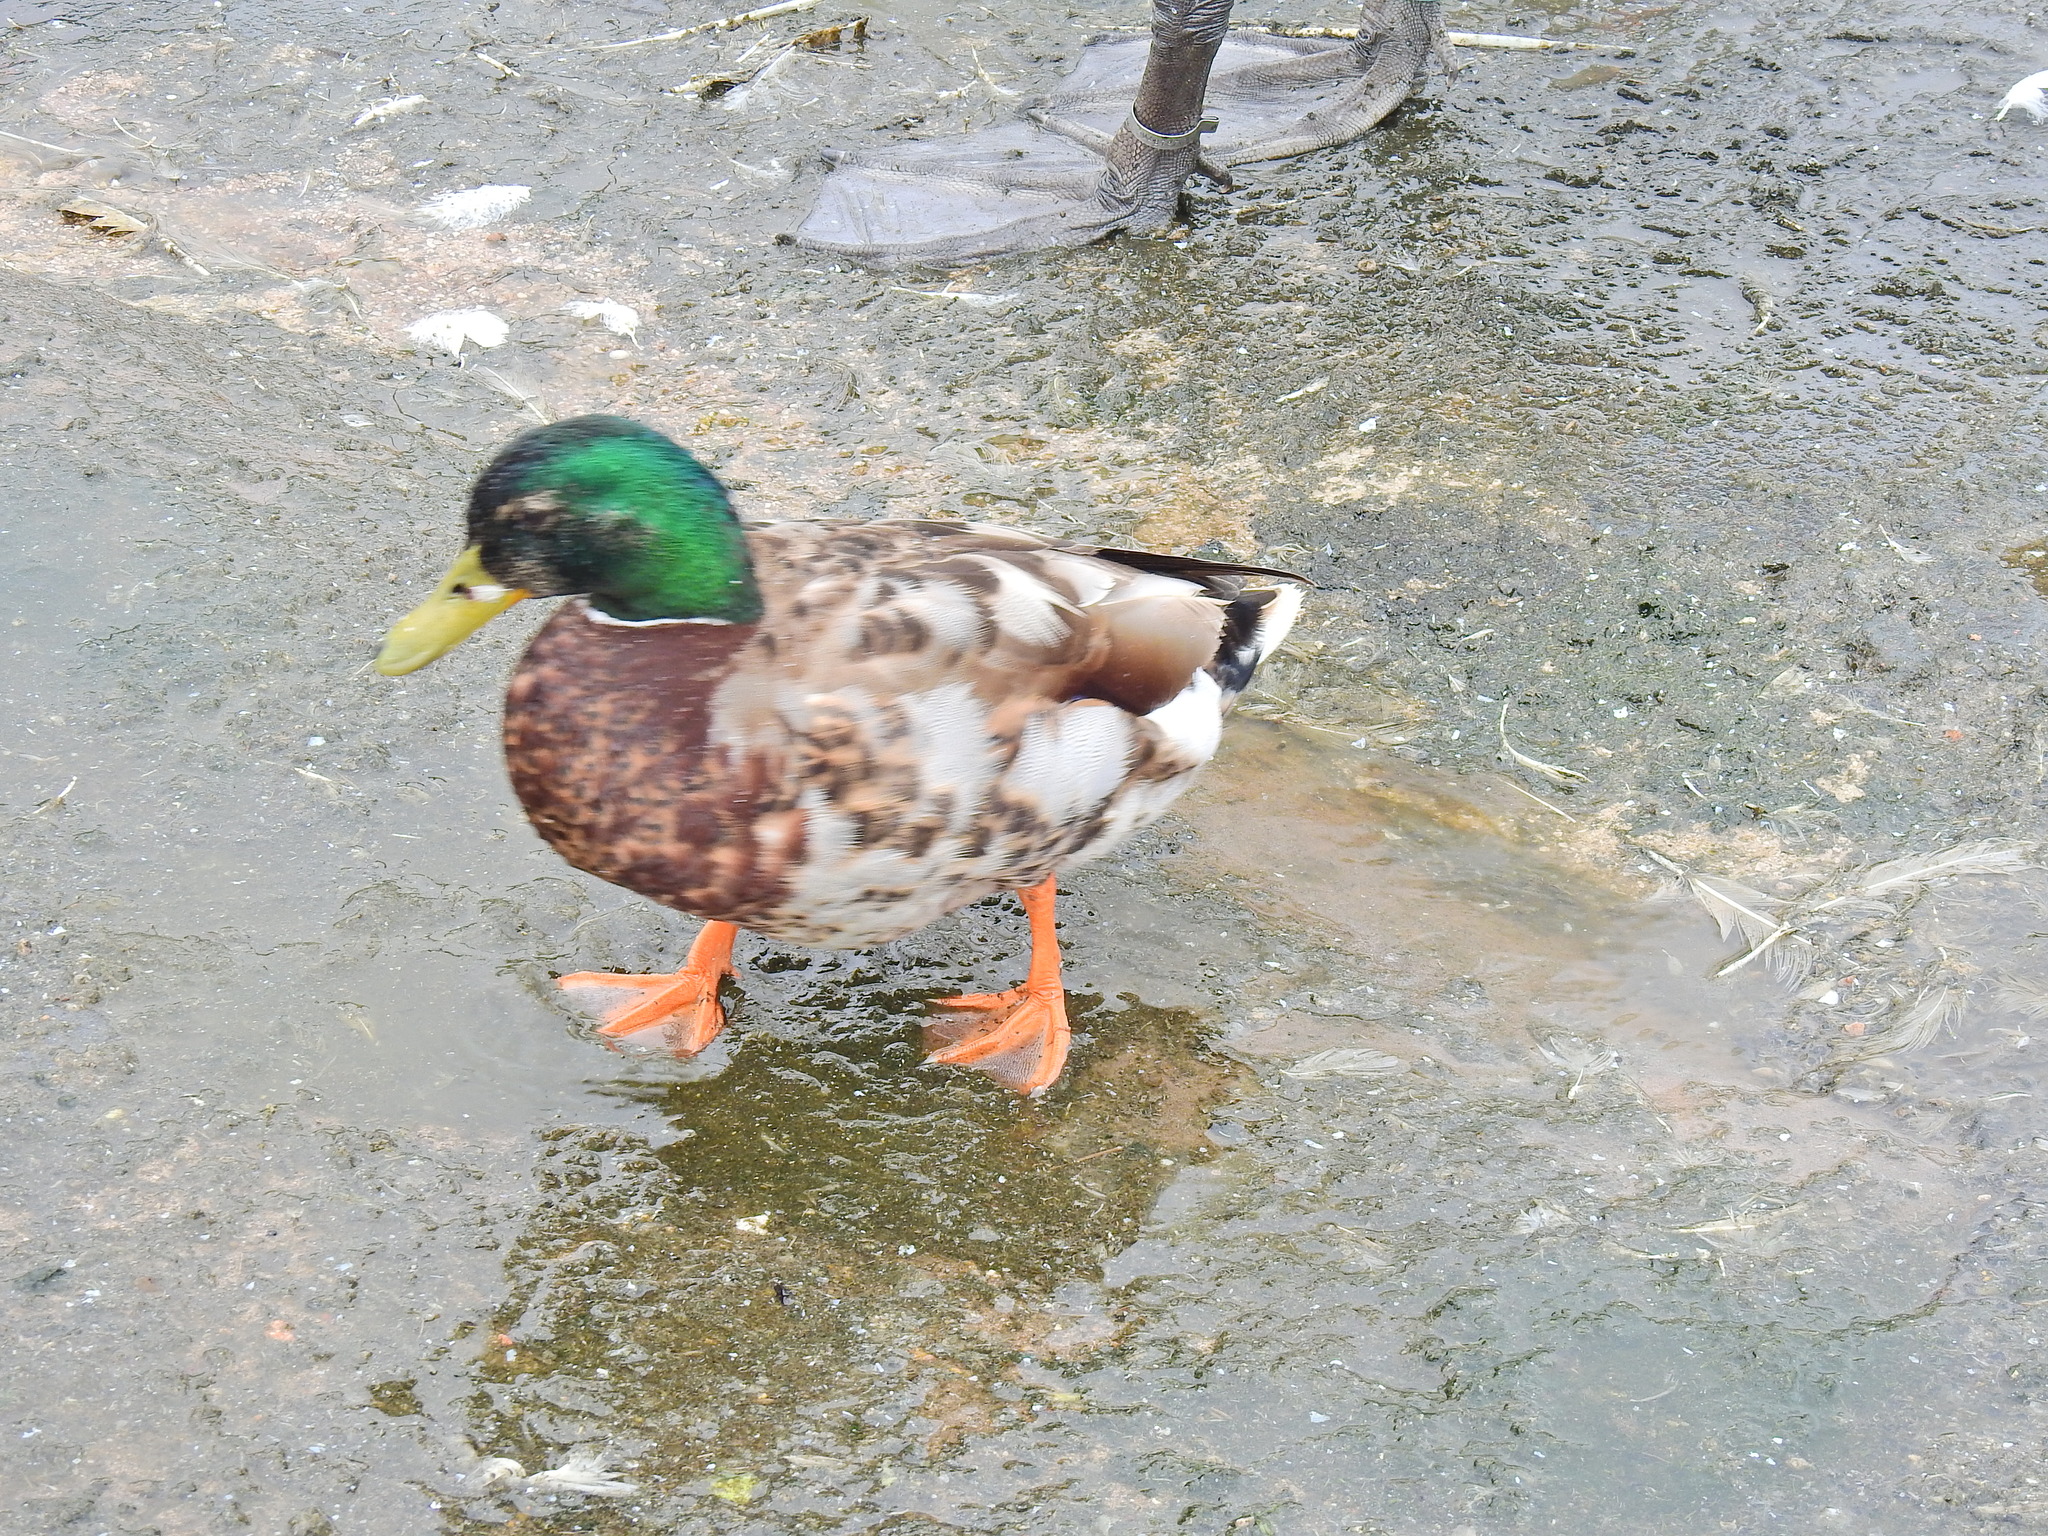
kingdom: Animalia
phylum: Chordata
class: Aves
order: Anseriformes
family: Anatidae
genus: Anas
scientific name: Anas platyrhynchos
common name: Mallard
